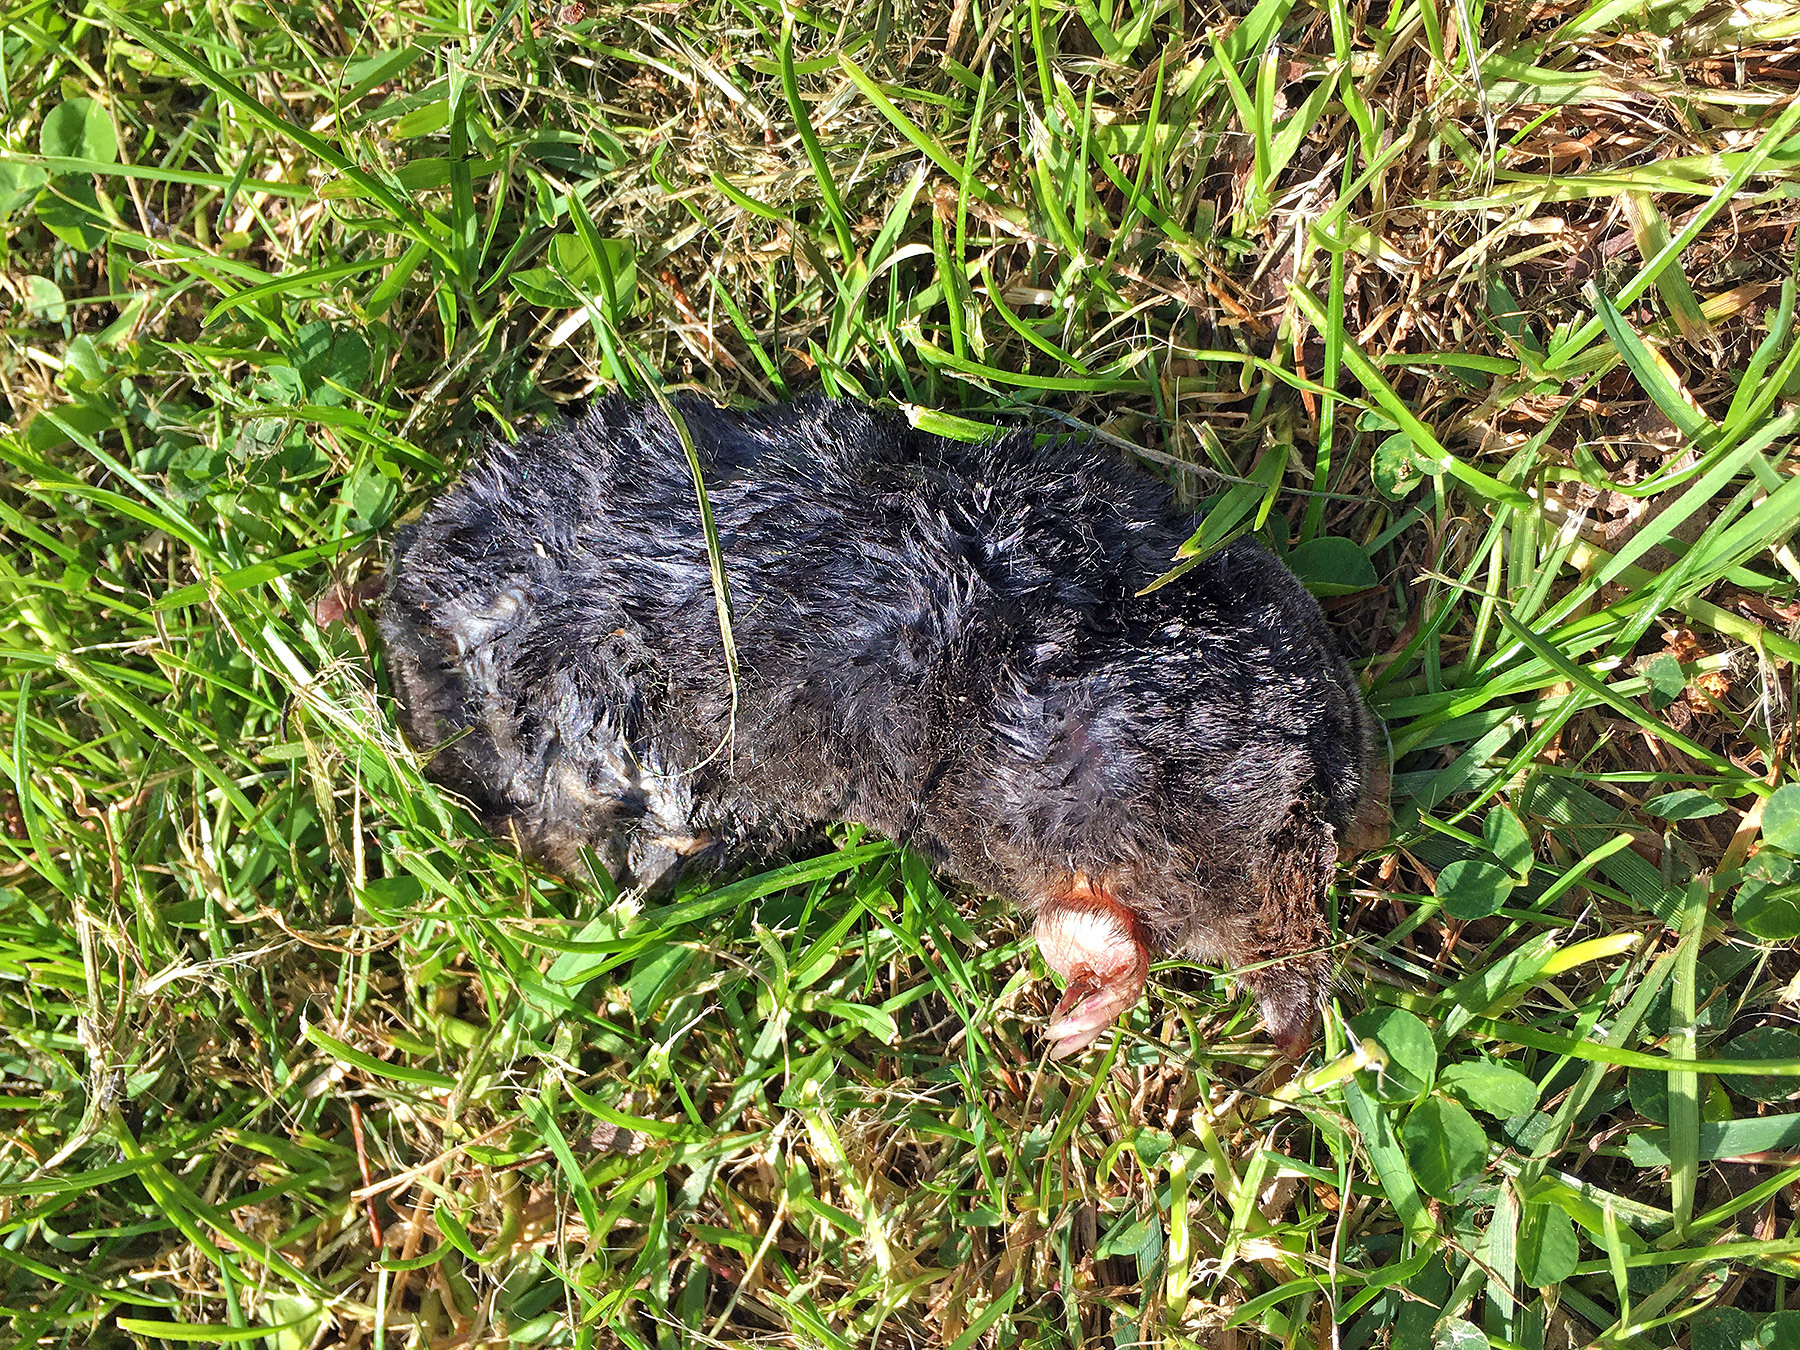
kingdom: Animalia
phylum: Chordata
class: Mammalia
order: Soricomorpha
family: Talpidae
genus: Talpa
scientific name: Talpa europaea
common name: European mole
